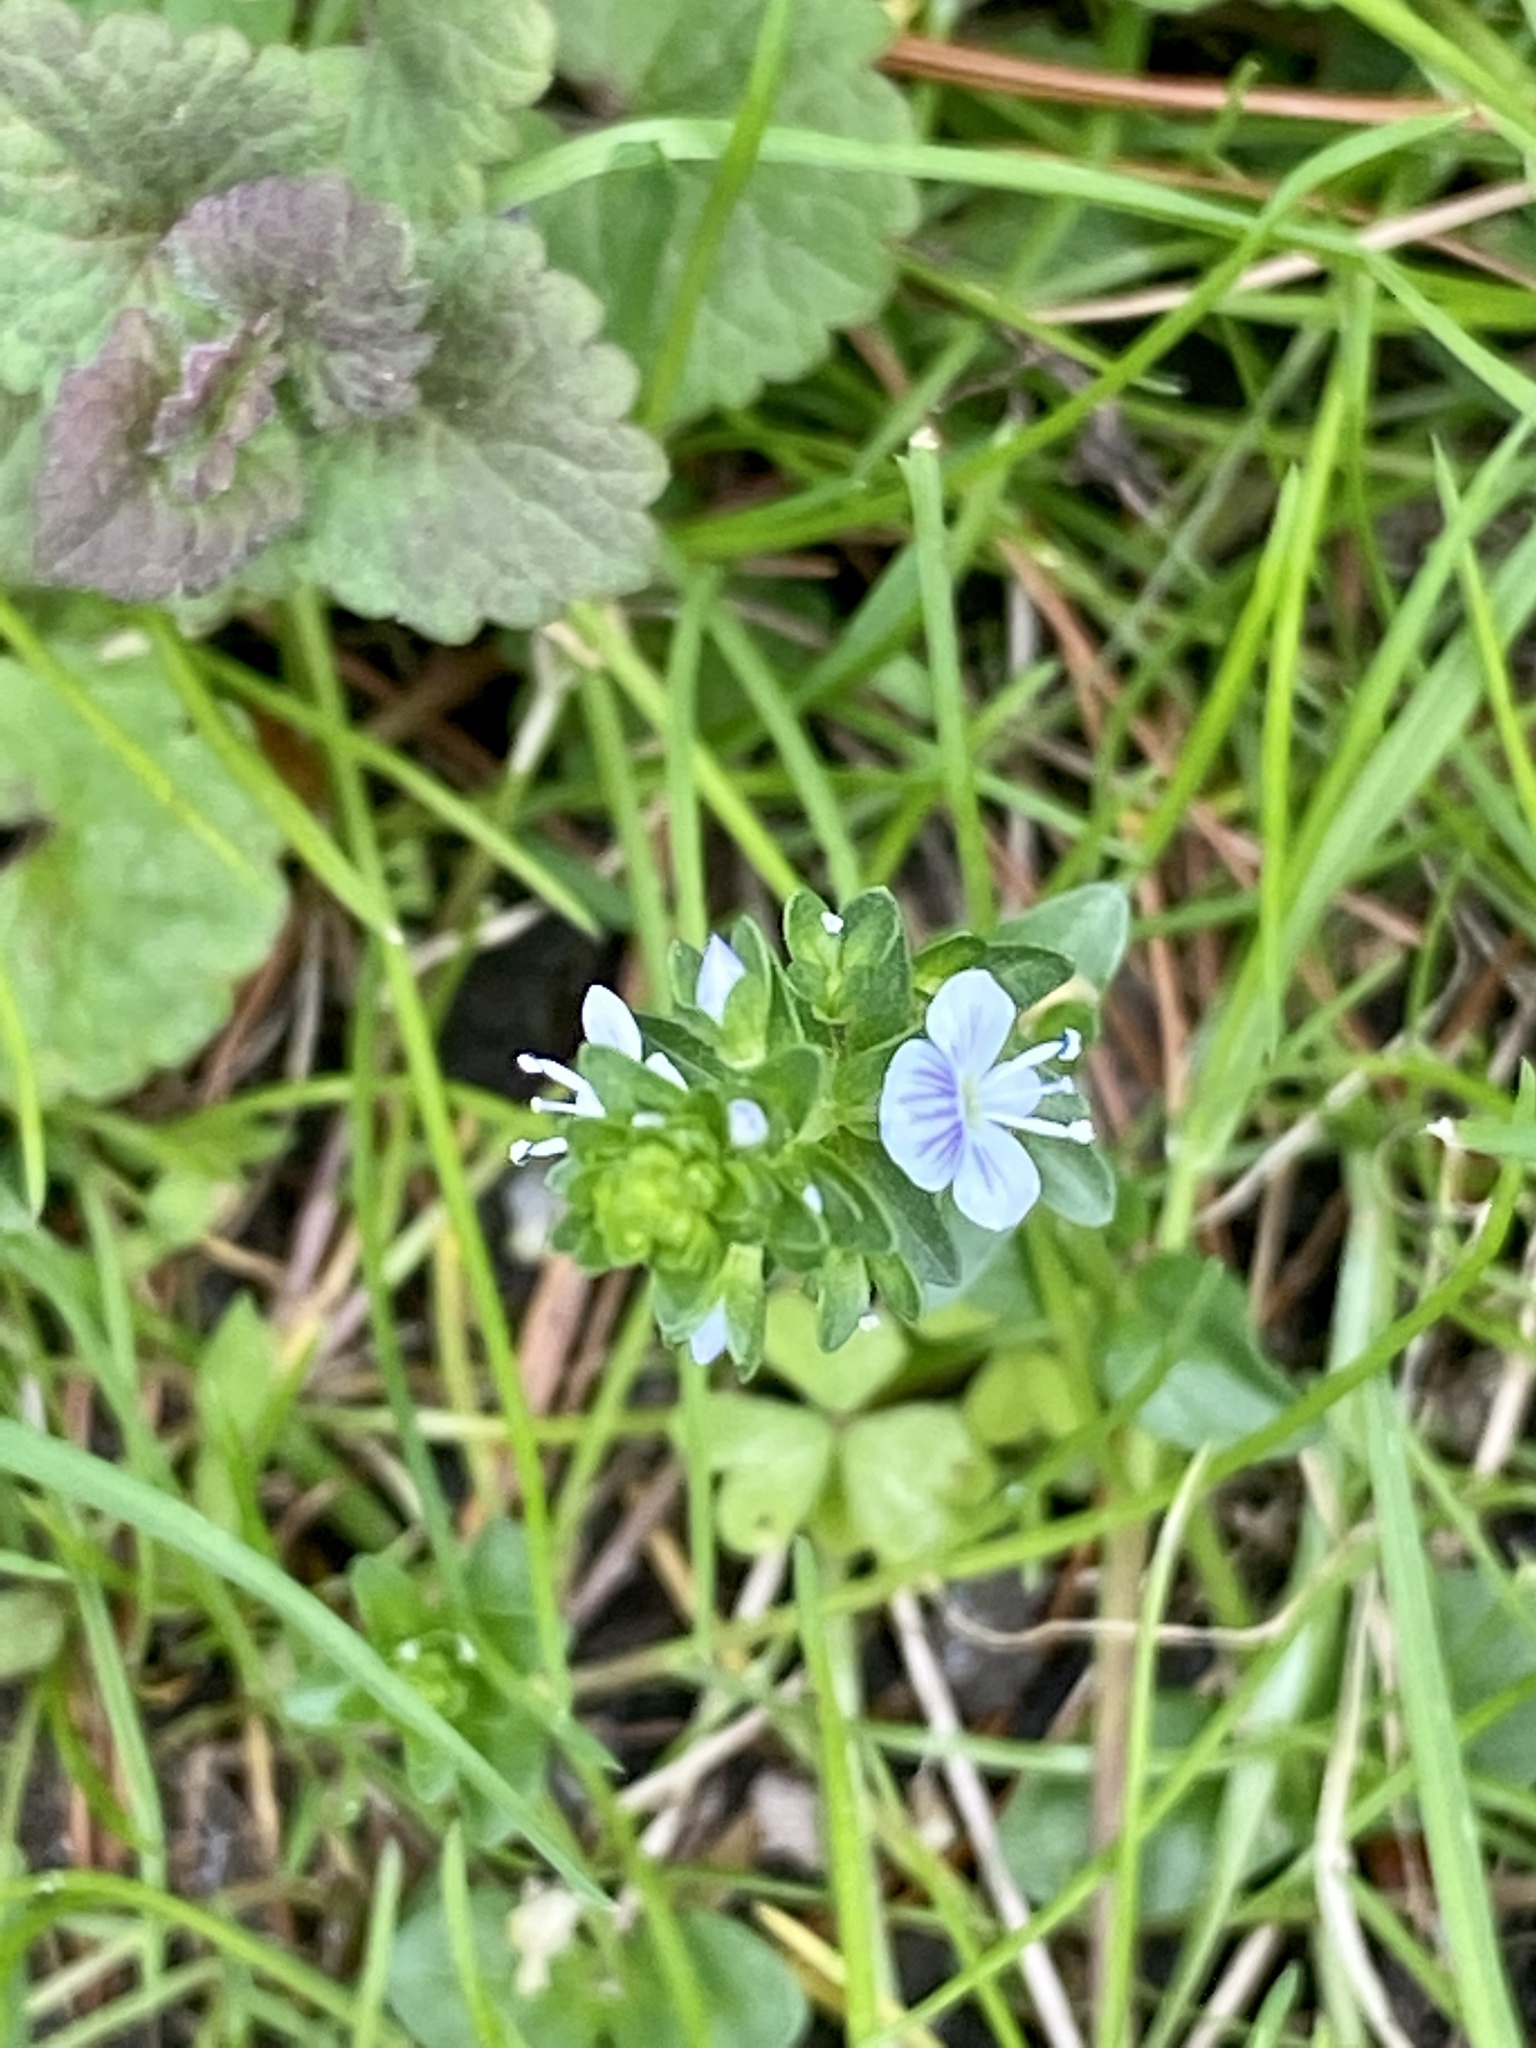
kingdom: Plantae
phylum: Tracheophyta
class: Magnoliopsida
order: Lamiales
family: Plantaginaceae
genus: Veronica
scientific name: Veronica serpyllifolia
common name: Thyme-leaved speedwell
